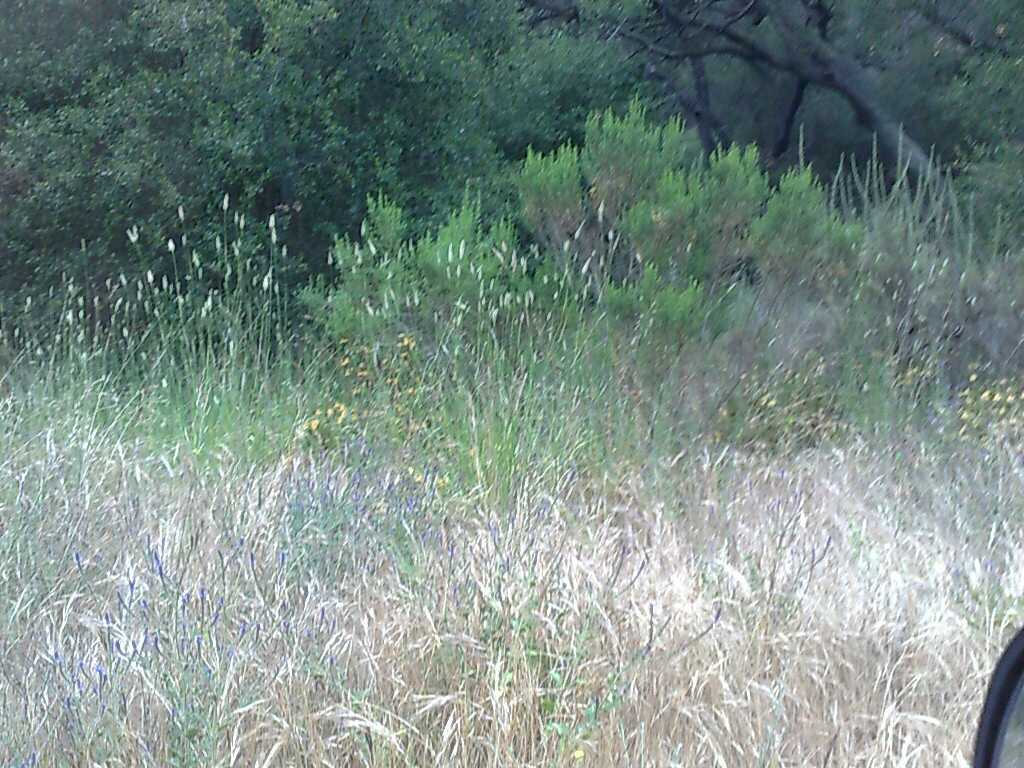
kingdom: Plantae
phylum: Tracheophyta
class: Magnoliopsida
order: Asterales
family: Asteraceae
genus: Baccharis
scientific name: Baccharis pilularis
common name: Coyotebrush
